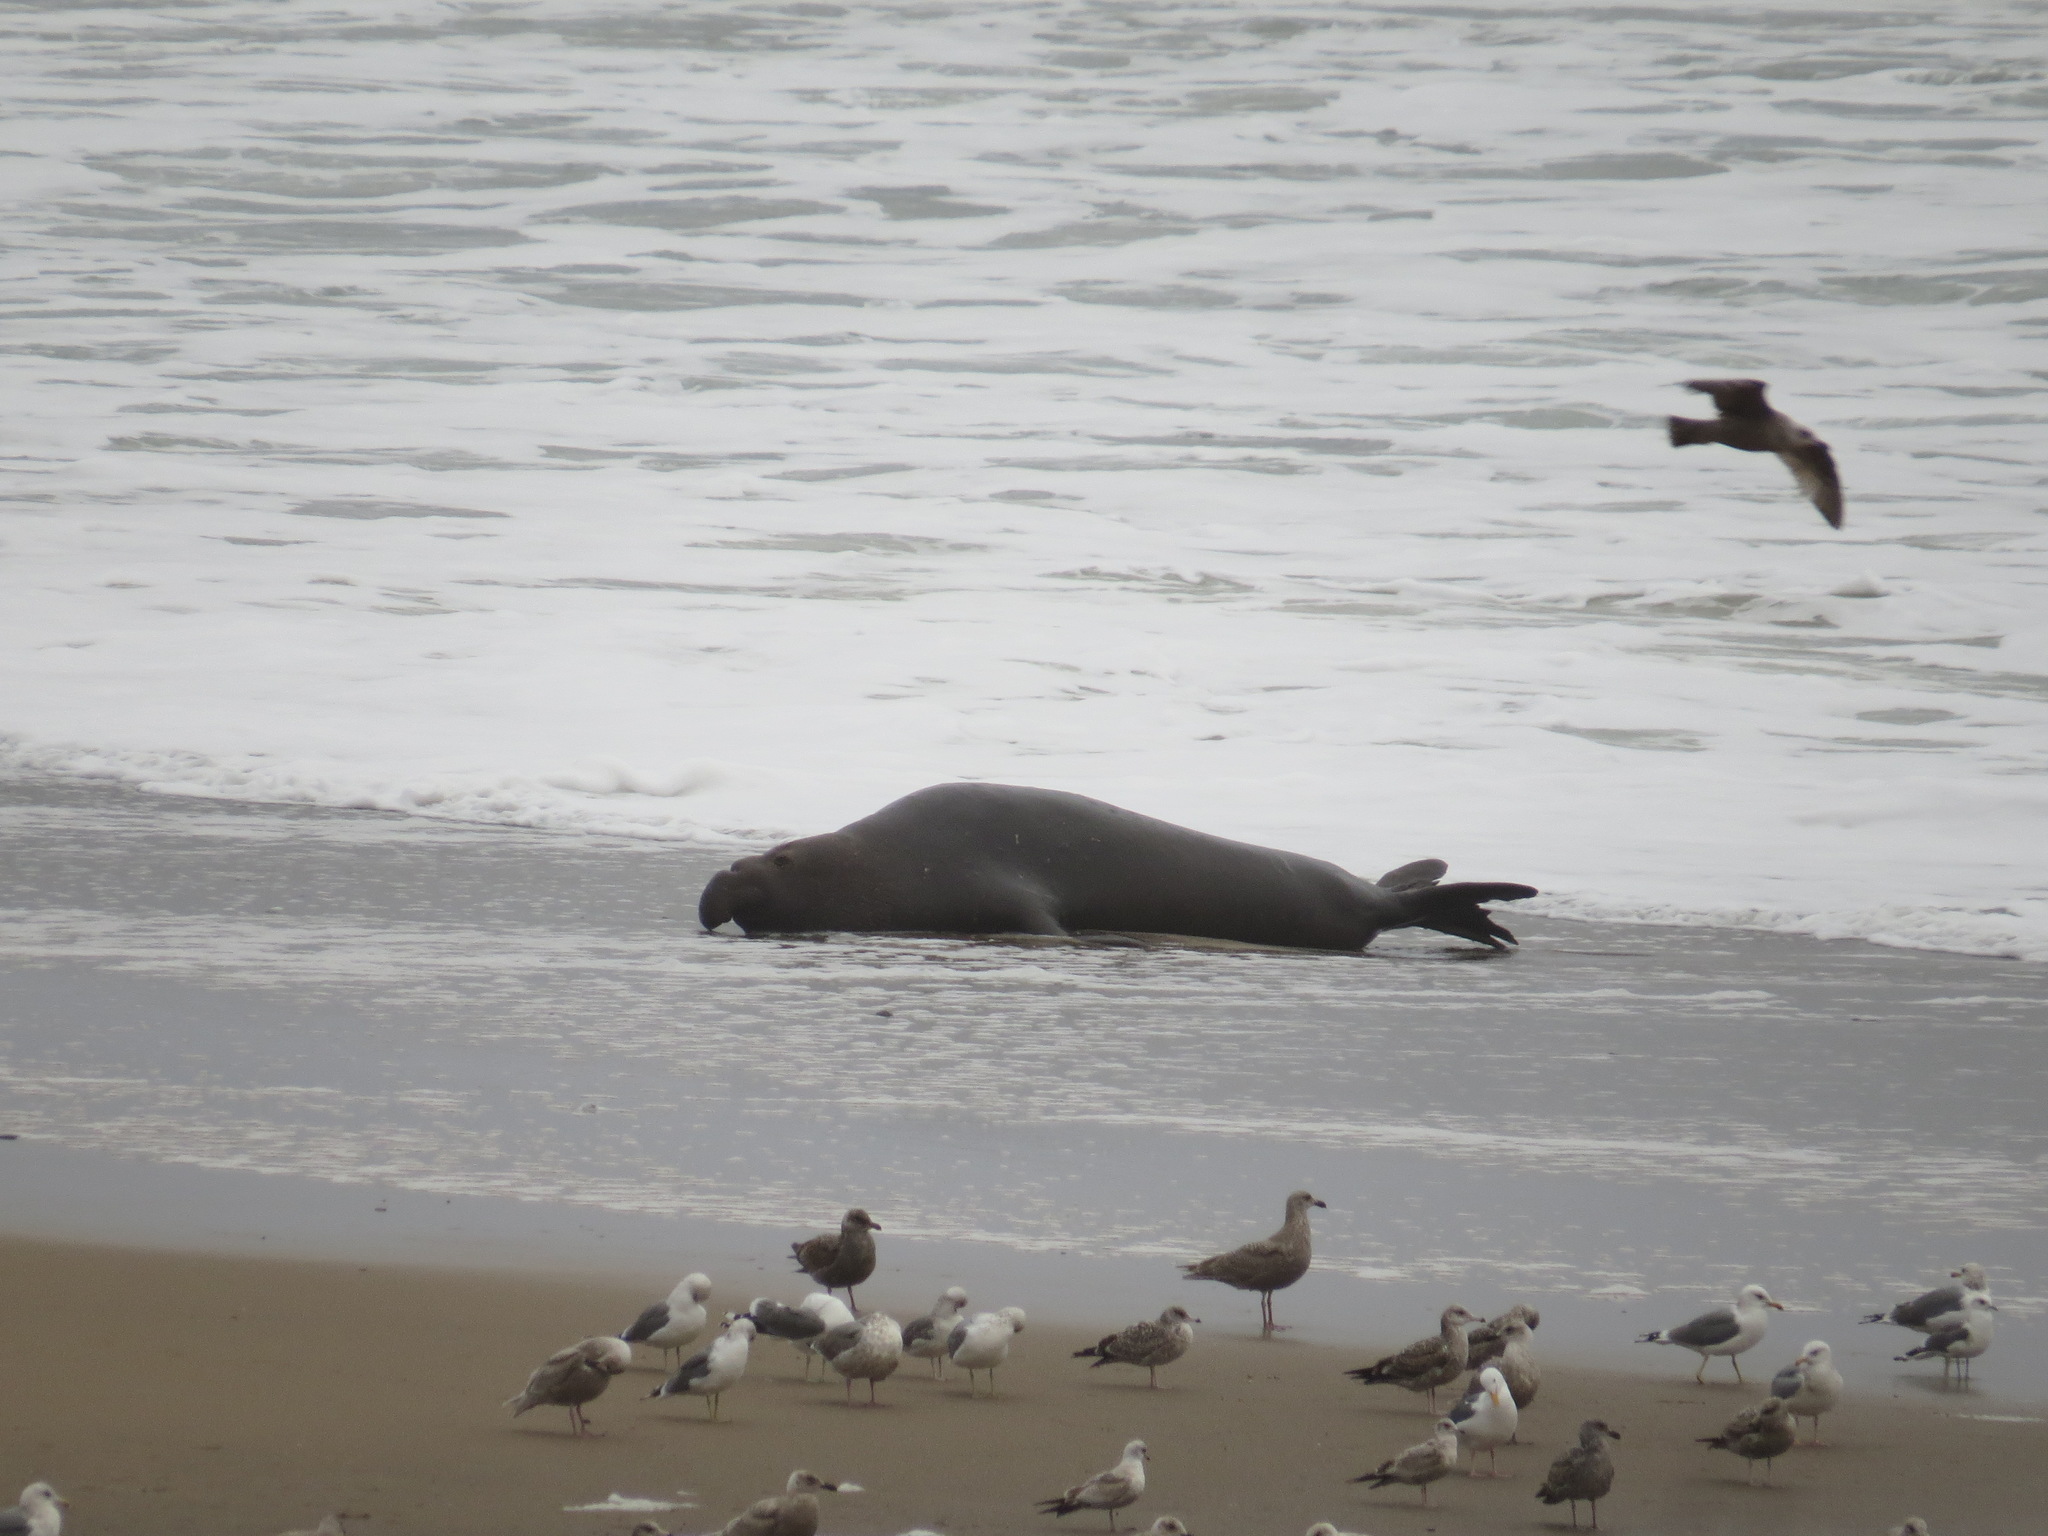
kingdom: Animalia
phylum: Chordata
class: Mammalia
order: Carnivora
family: Phocidae
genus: Mirounga
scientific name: Mirounga angustirostris
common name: Northern elephant seal
